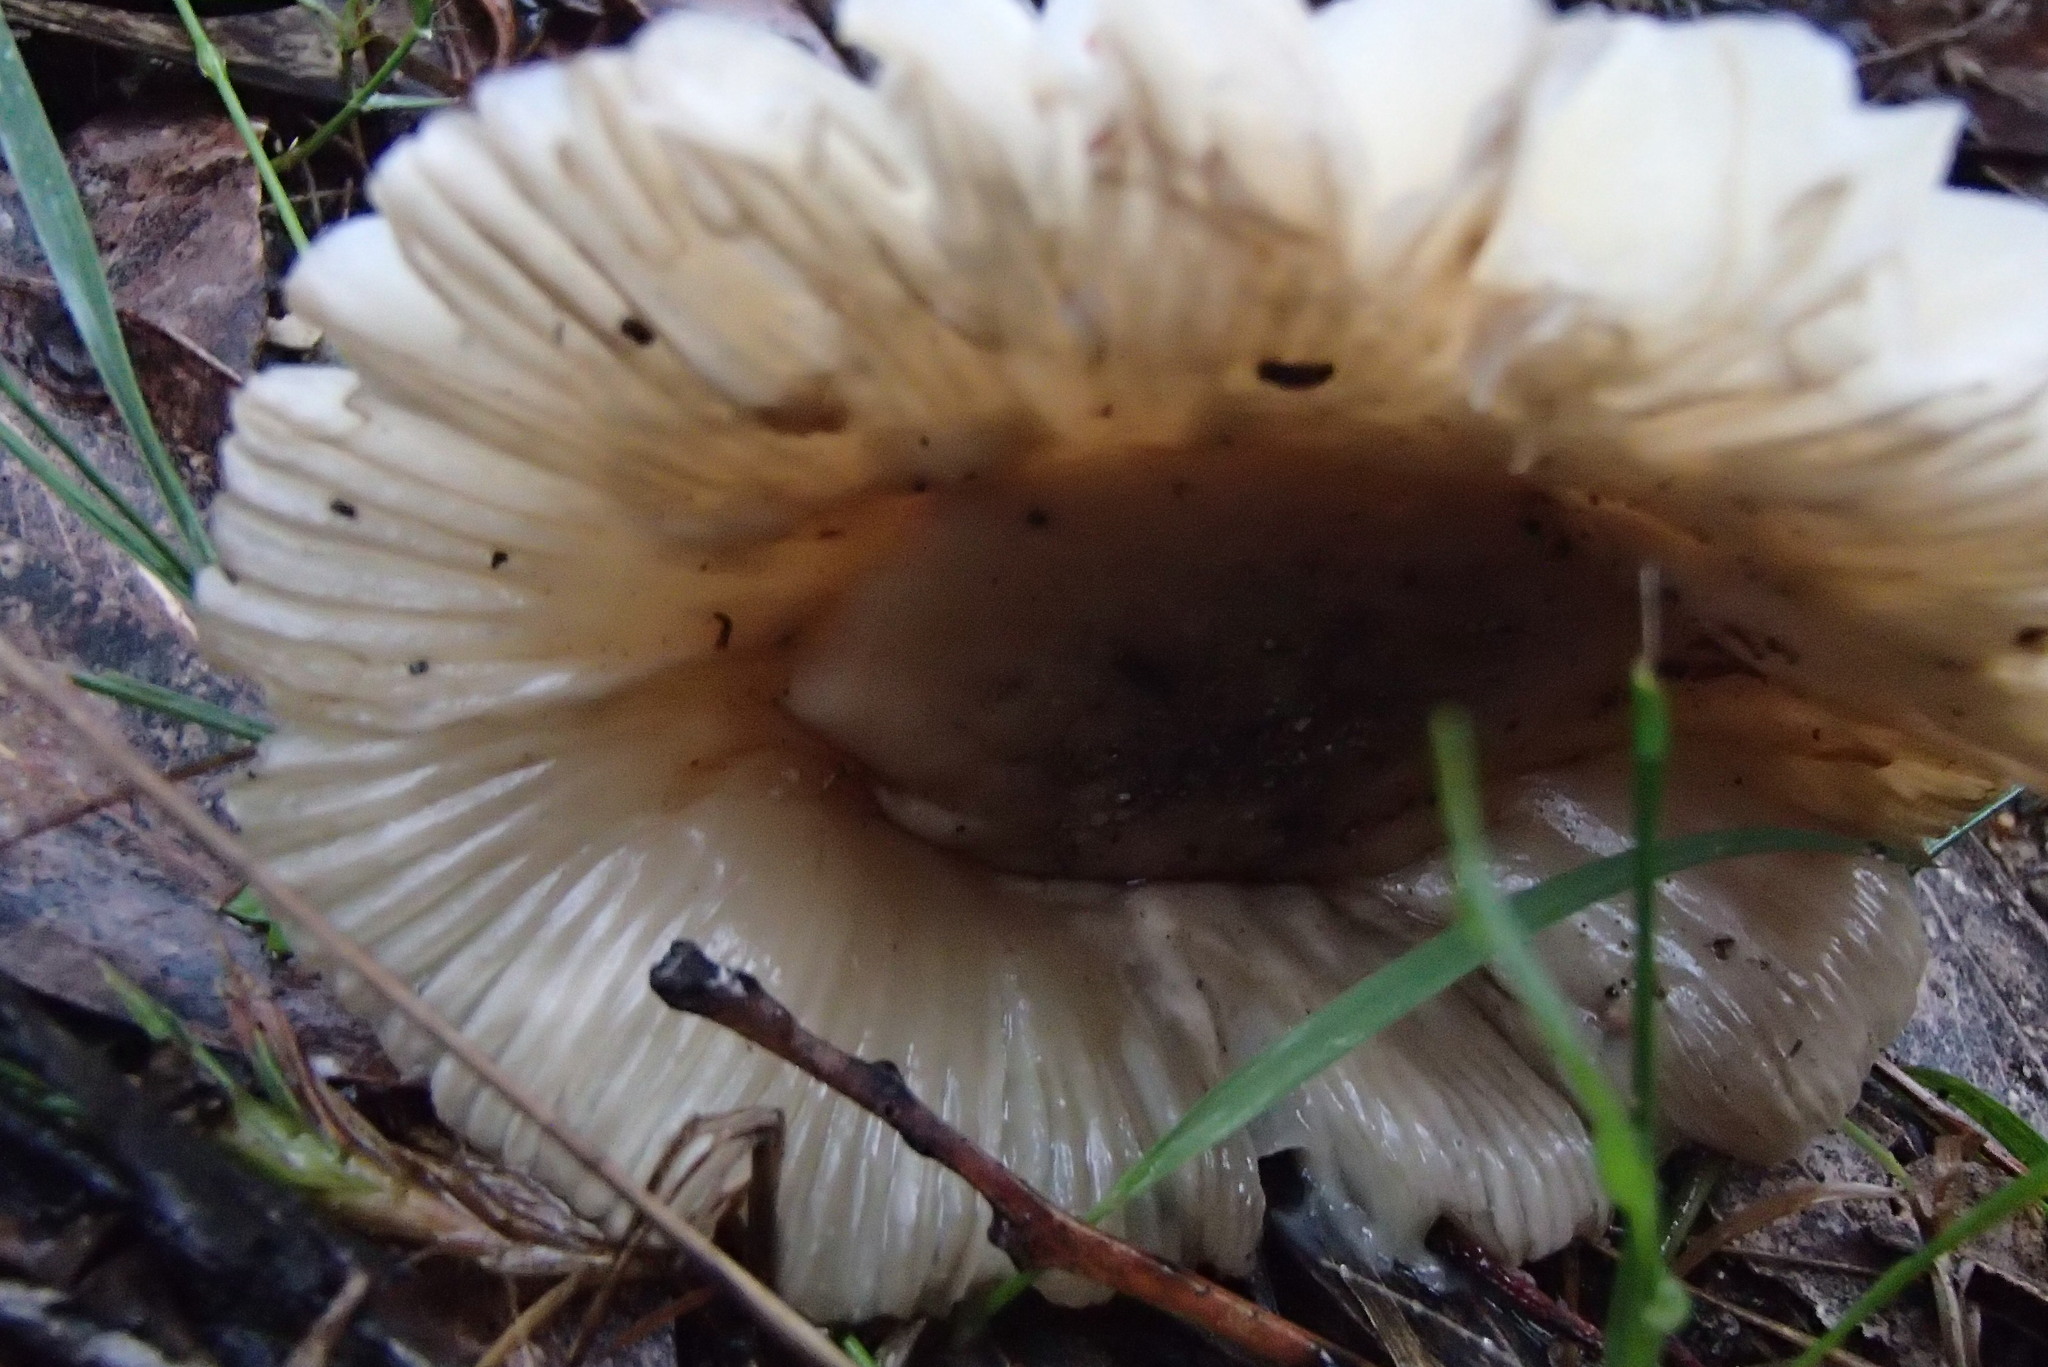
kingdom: Fungi
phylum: Basidiomycota
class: Agaricomycetes
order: Agaricales
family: Amanitaceae
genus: Amanita
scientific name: Amanita roseolamellata
